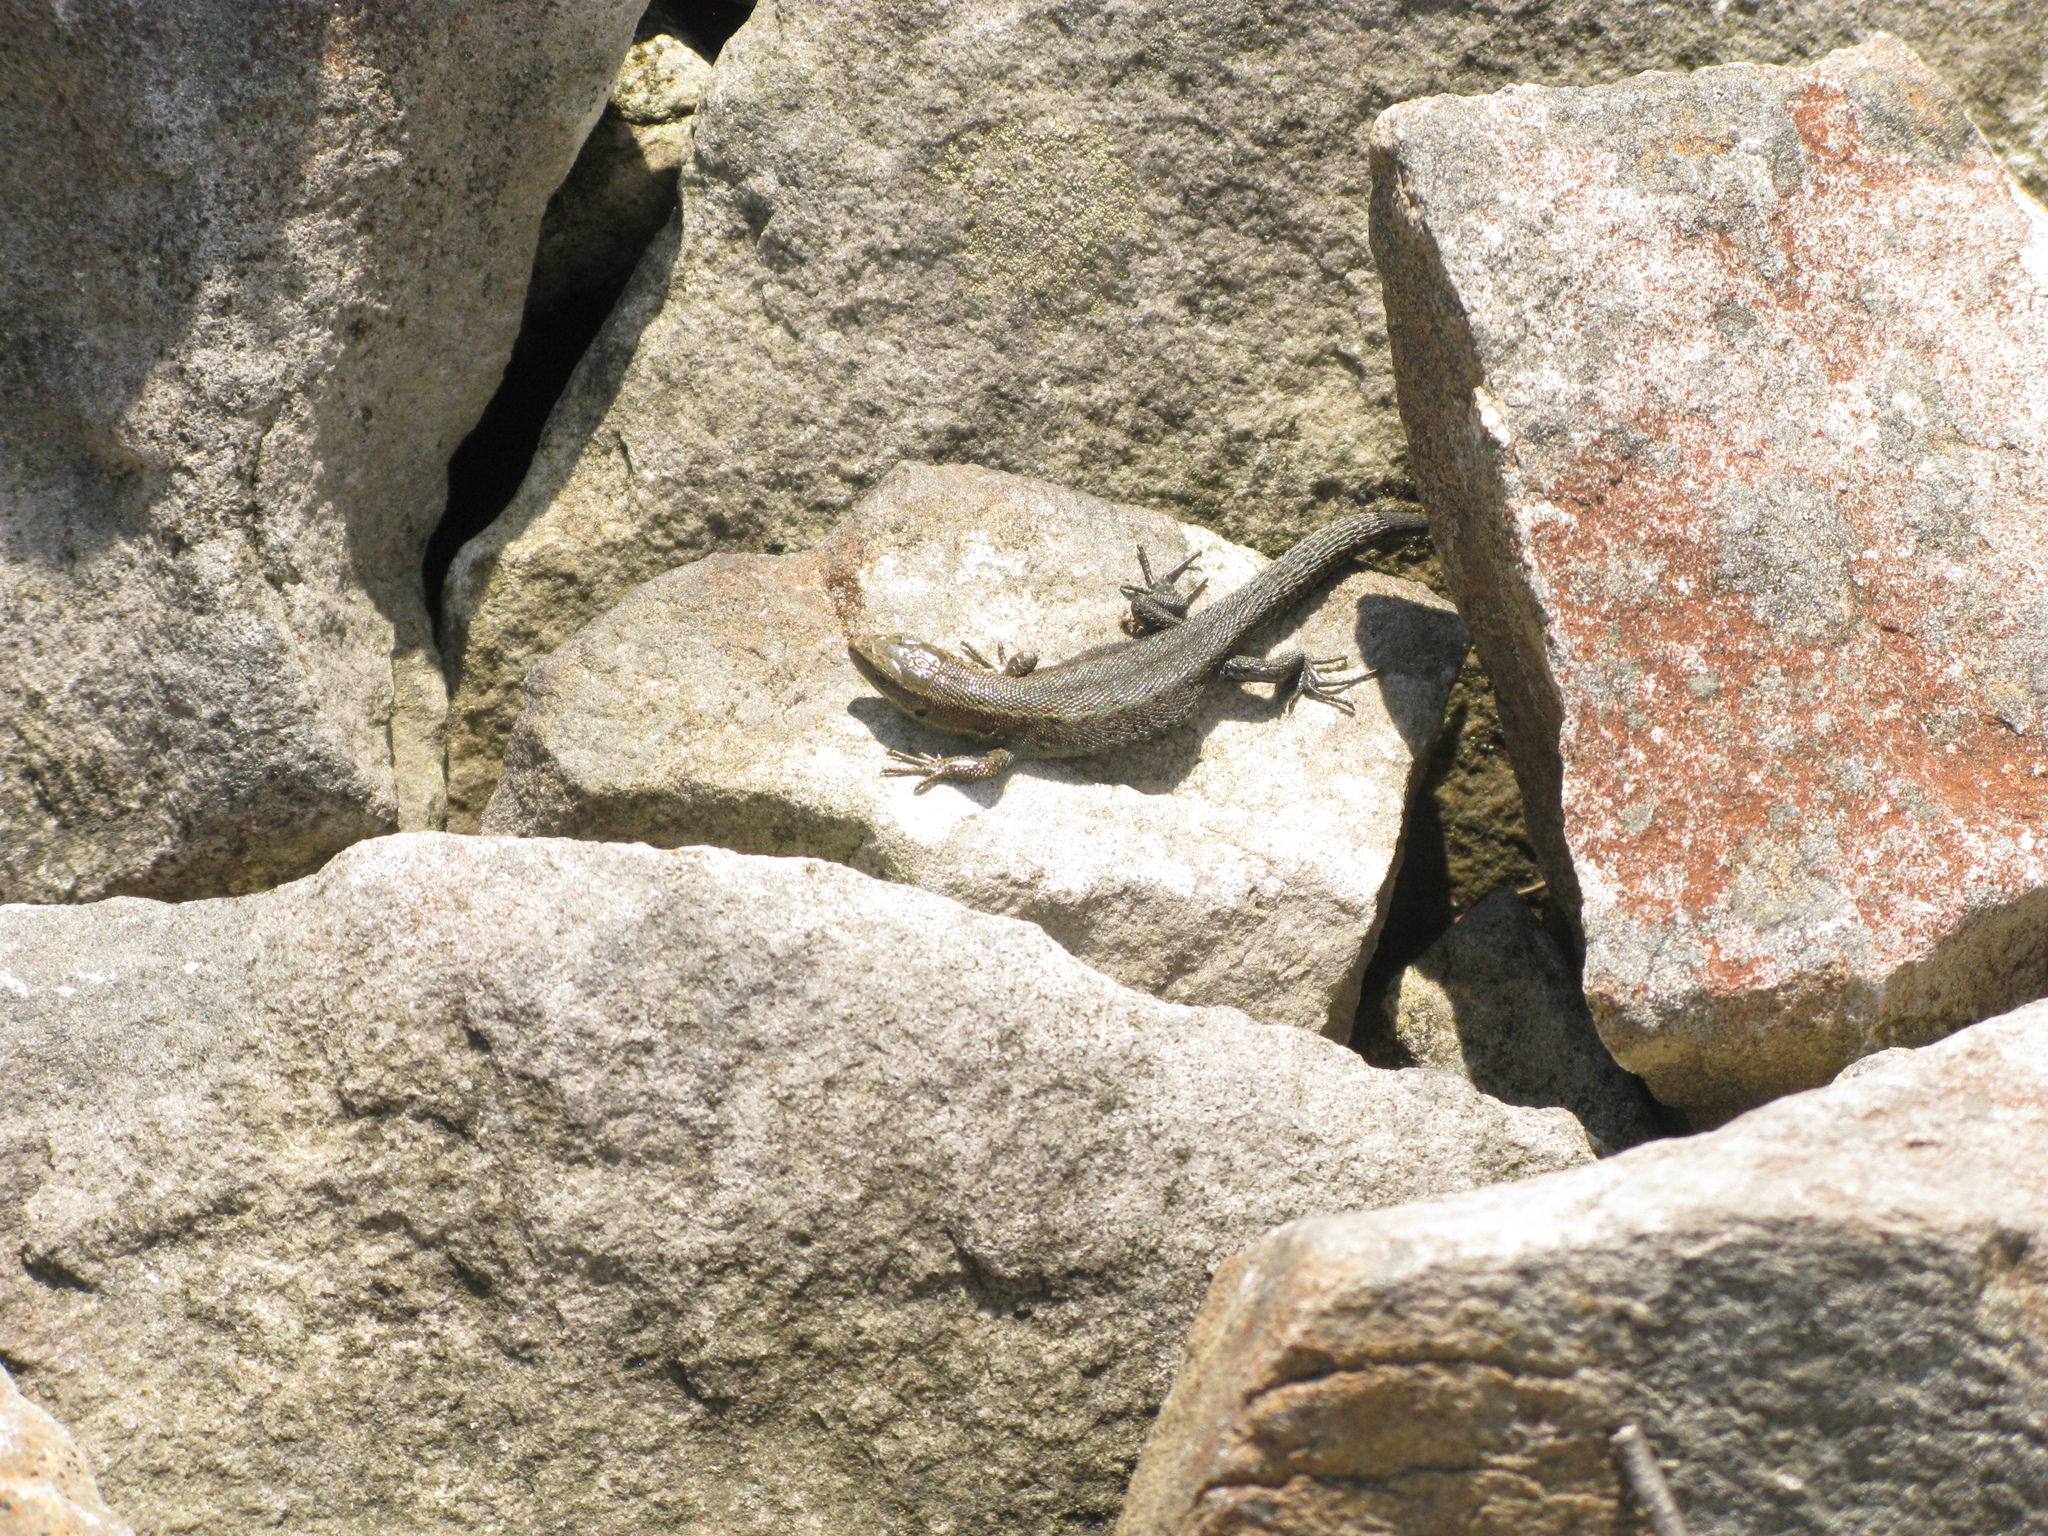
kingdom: Animalia
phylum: Chordata
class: Squamata
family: Lacertidae
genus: Zootoca
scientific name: Zootoca vivipara
